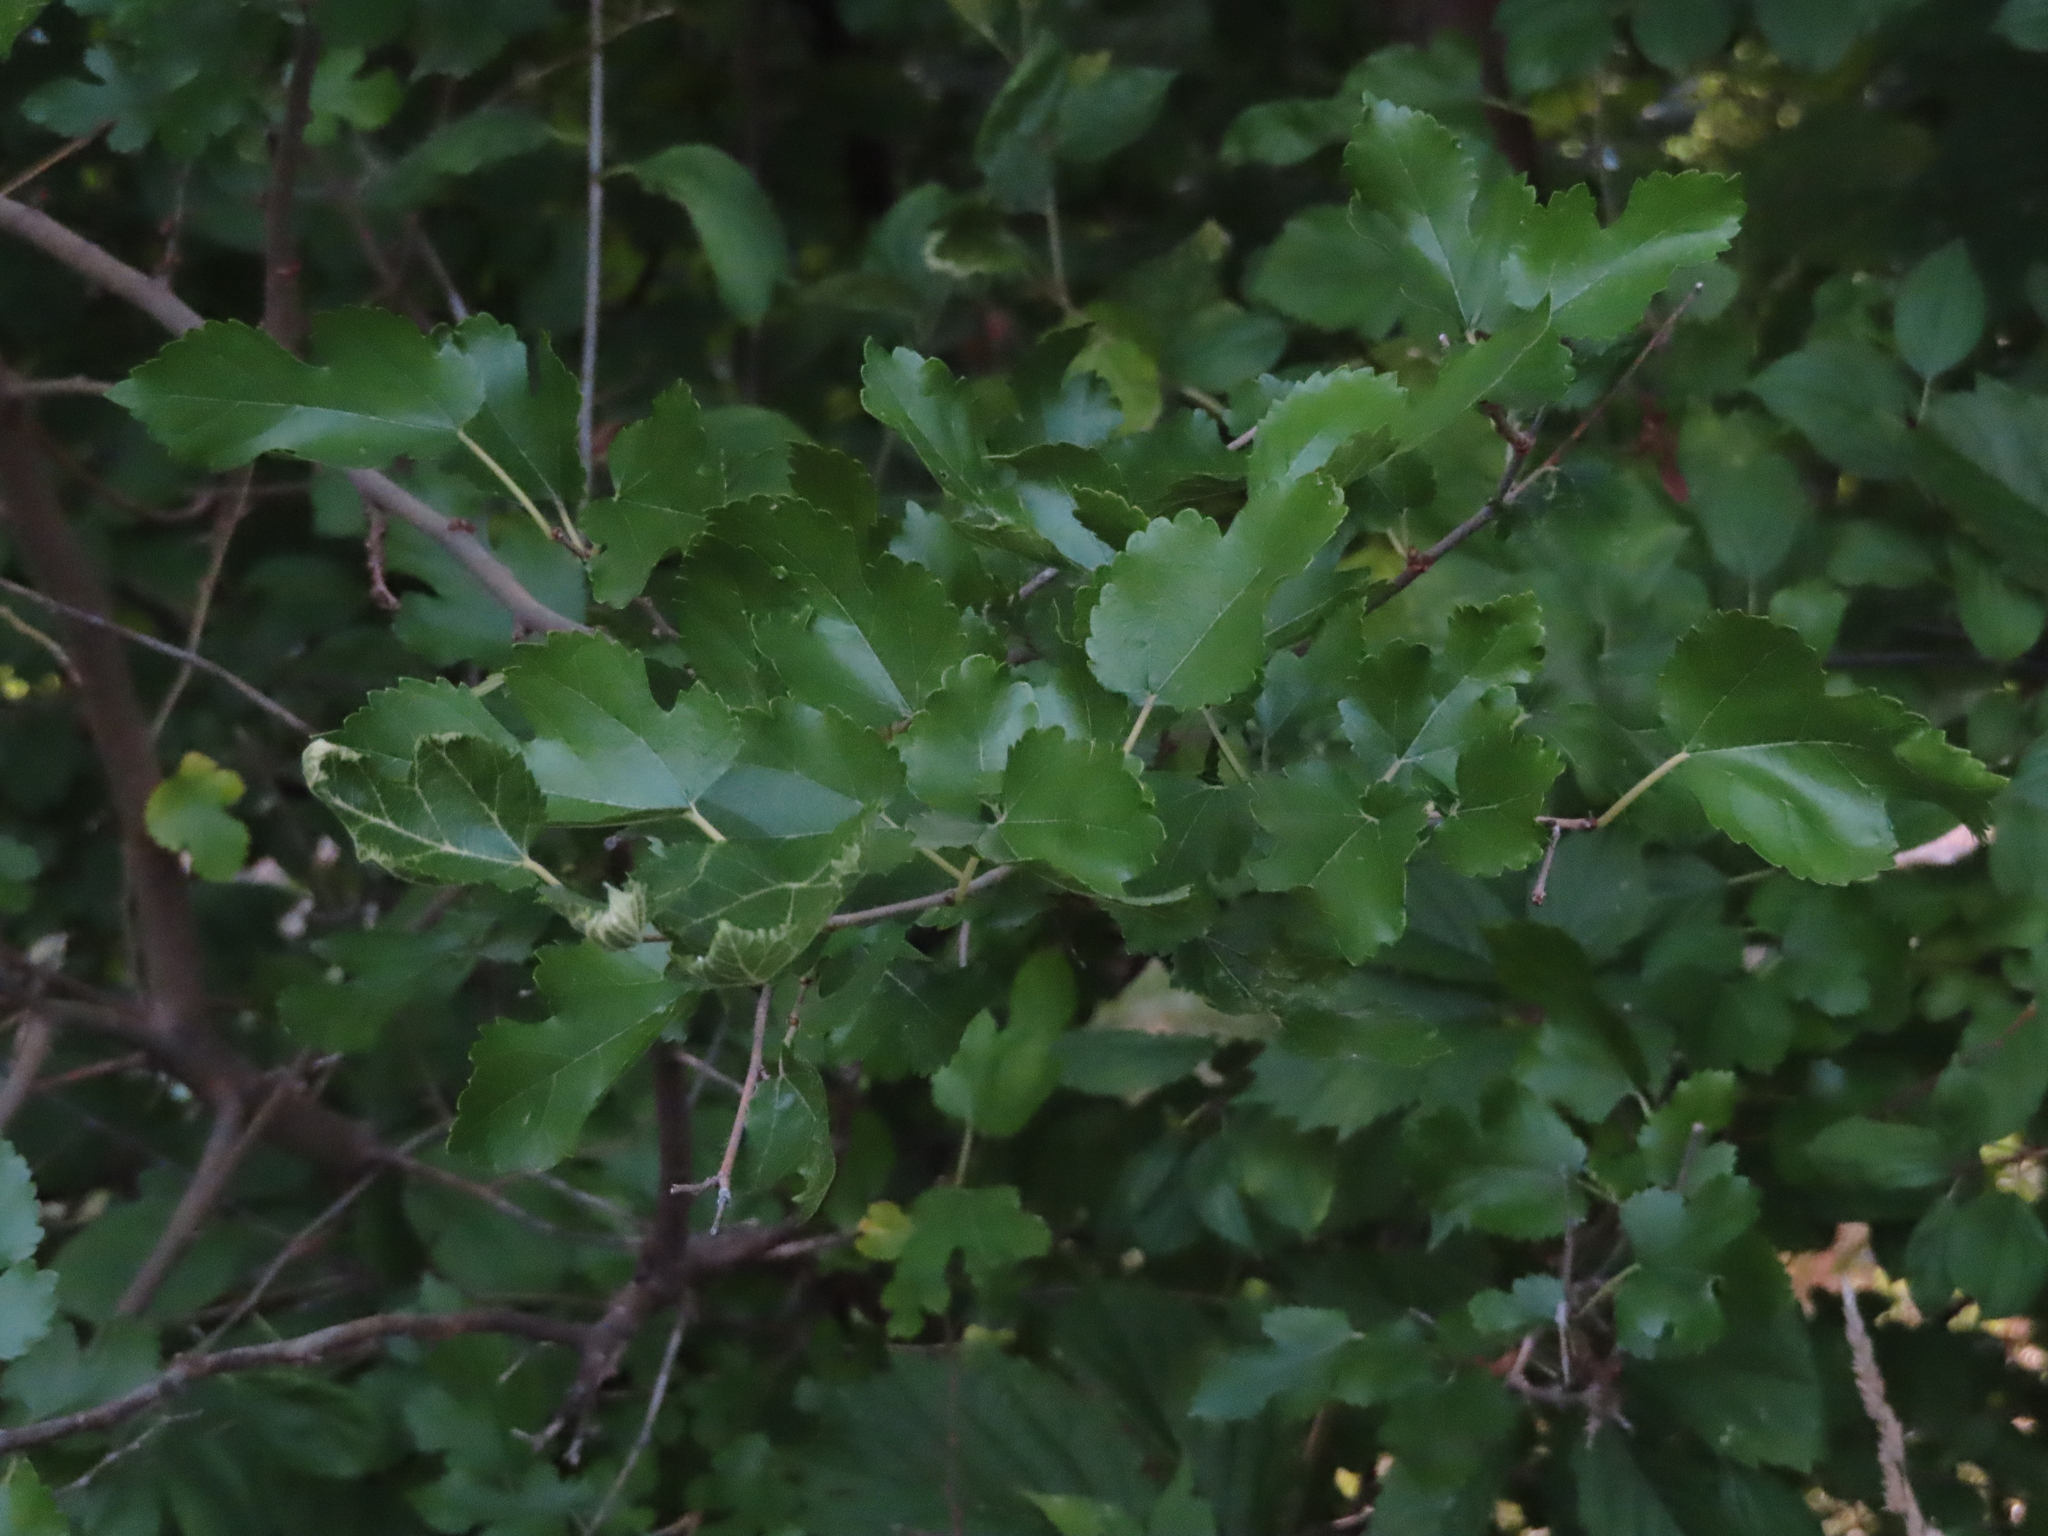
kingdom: Plantae
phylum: Tracheophyta
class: Magnoliopsida
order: Rosales
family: Moraceae
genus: Morus
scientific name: Morus alba
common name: White mulberry
